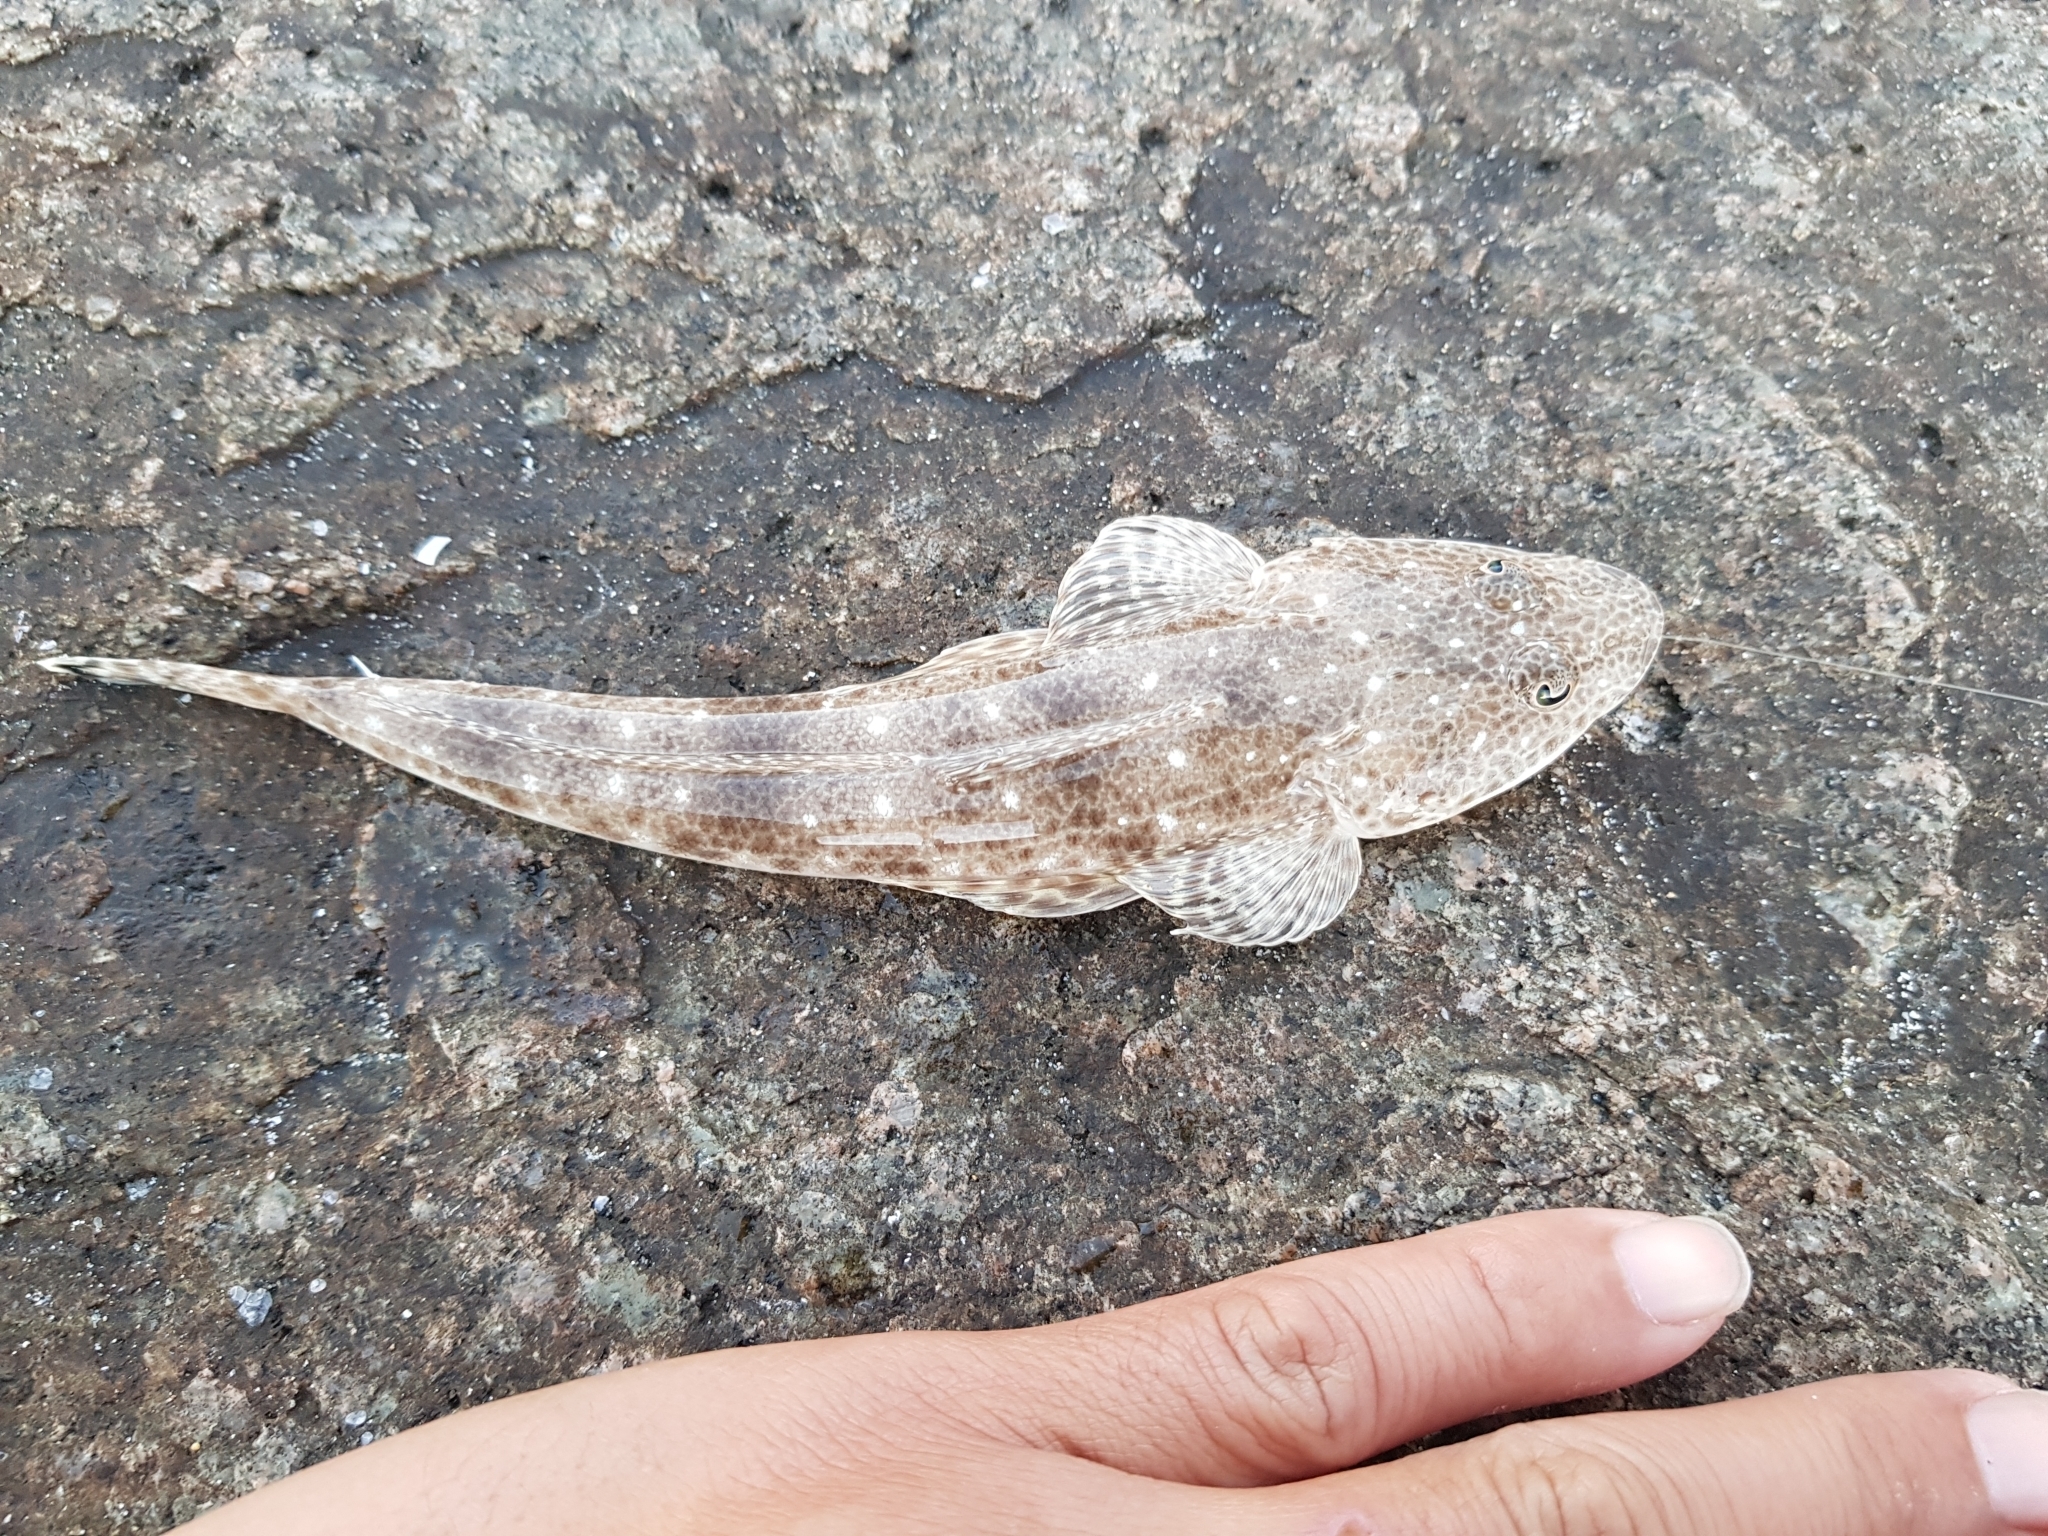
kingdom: Animalia
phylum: Chordata
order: Scorpaeniformes
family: Platycephalidae
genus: Platycephalus
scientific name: Platycephalus bassensis
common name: Sand flathead
